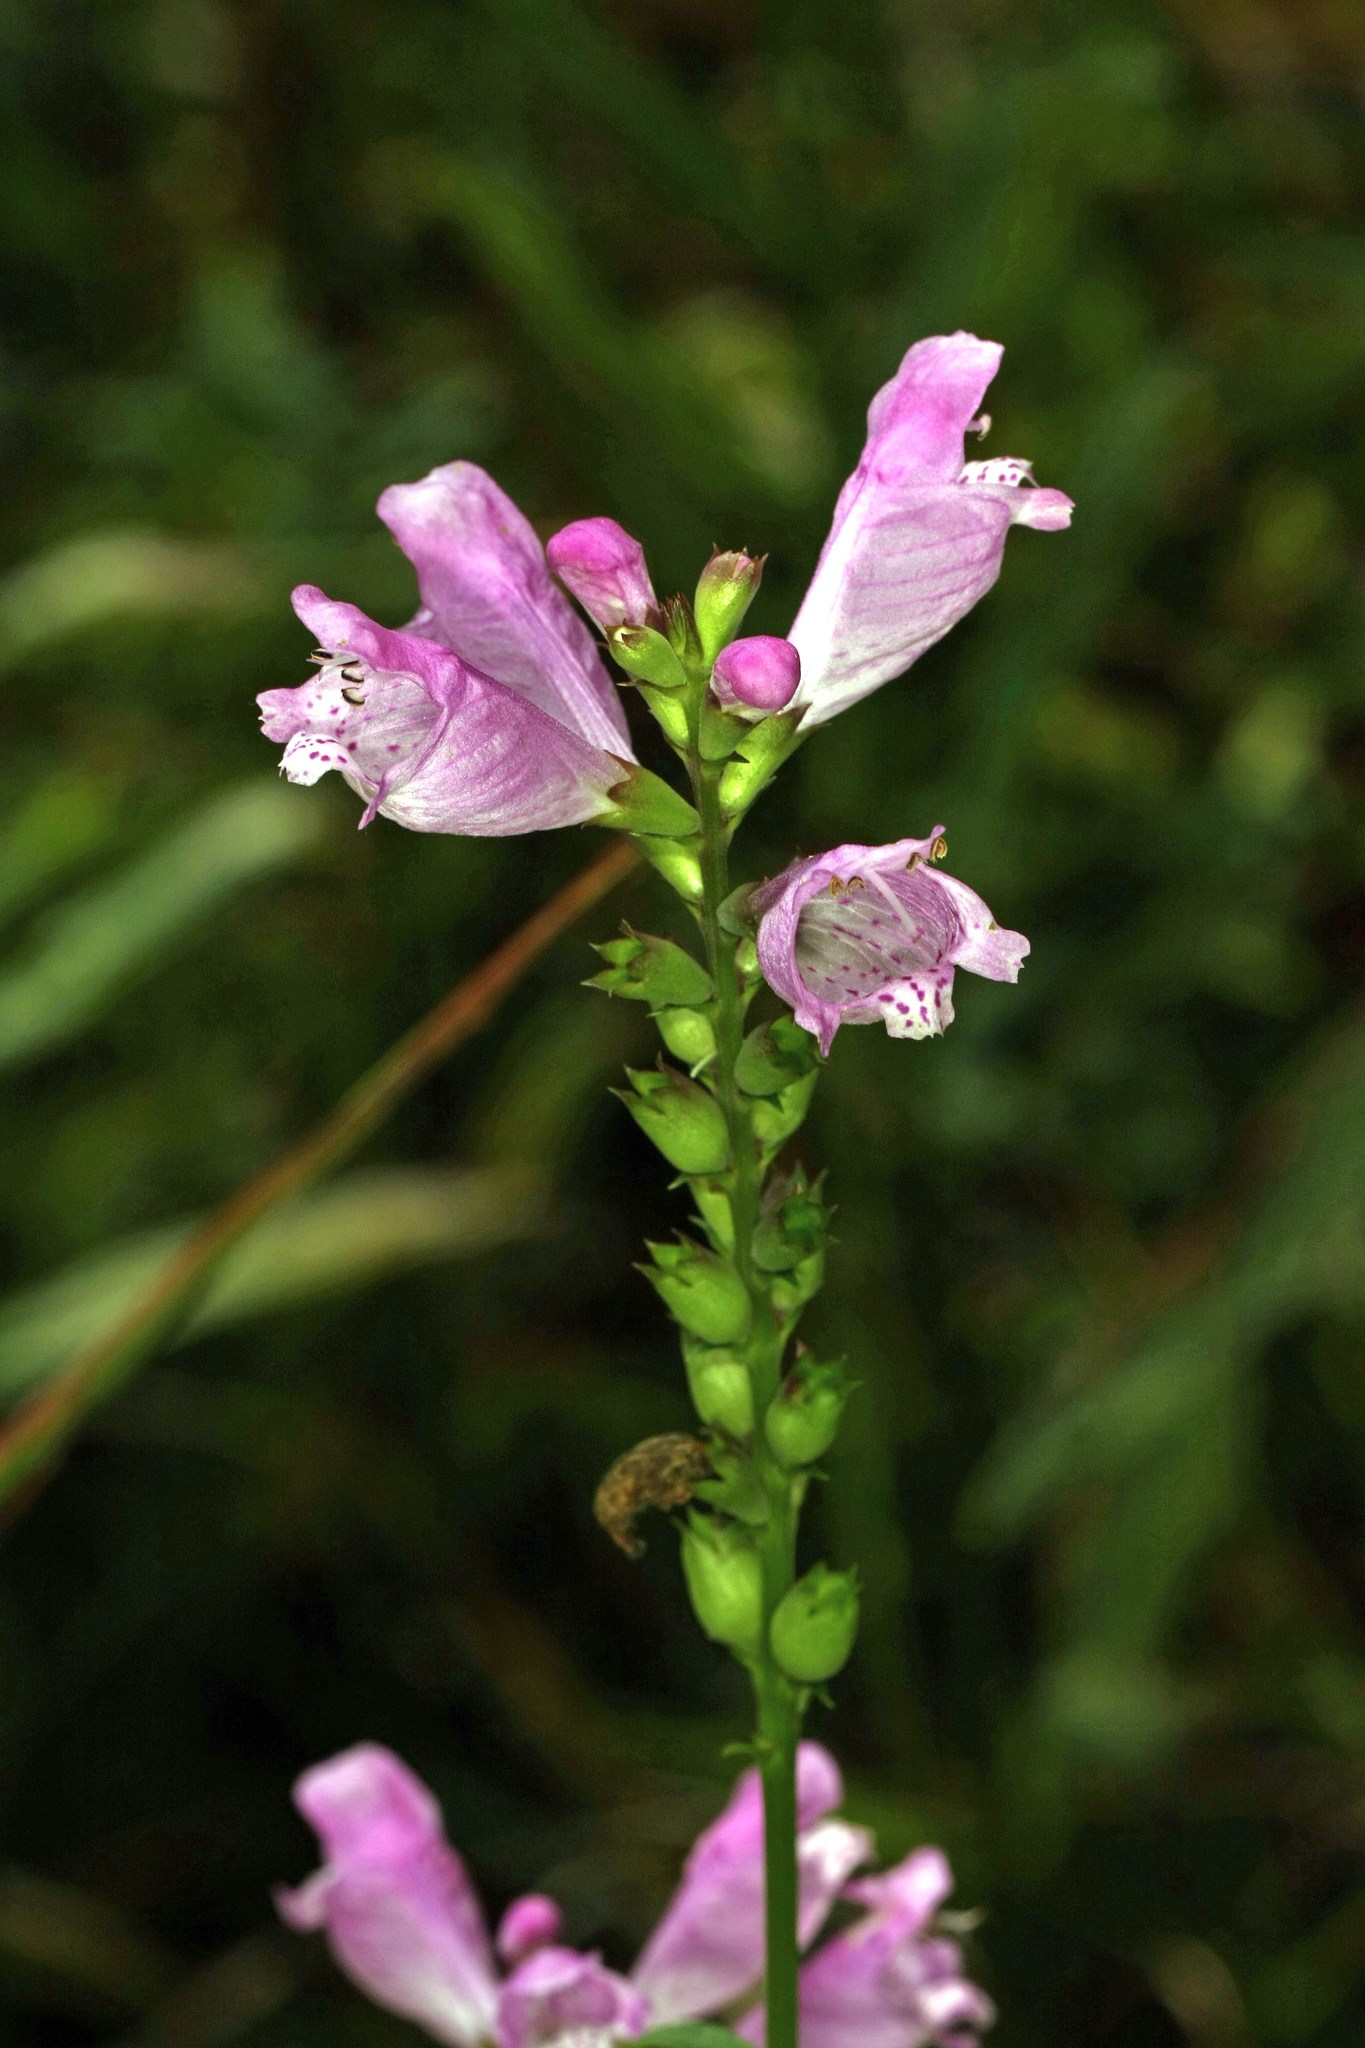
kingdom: Plantae
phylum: Tracheophyta
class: Magnoliopsida
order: Lamiales
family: Lamiaceae
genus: Physostegia
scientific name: Physostegia virginiana
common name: Obedient-plant
